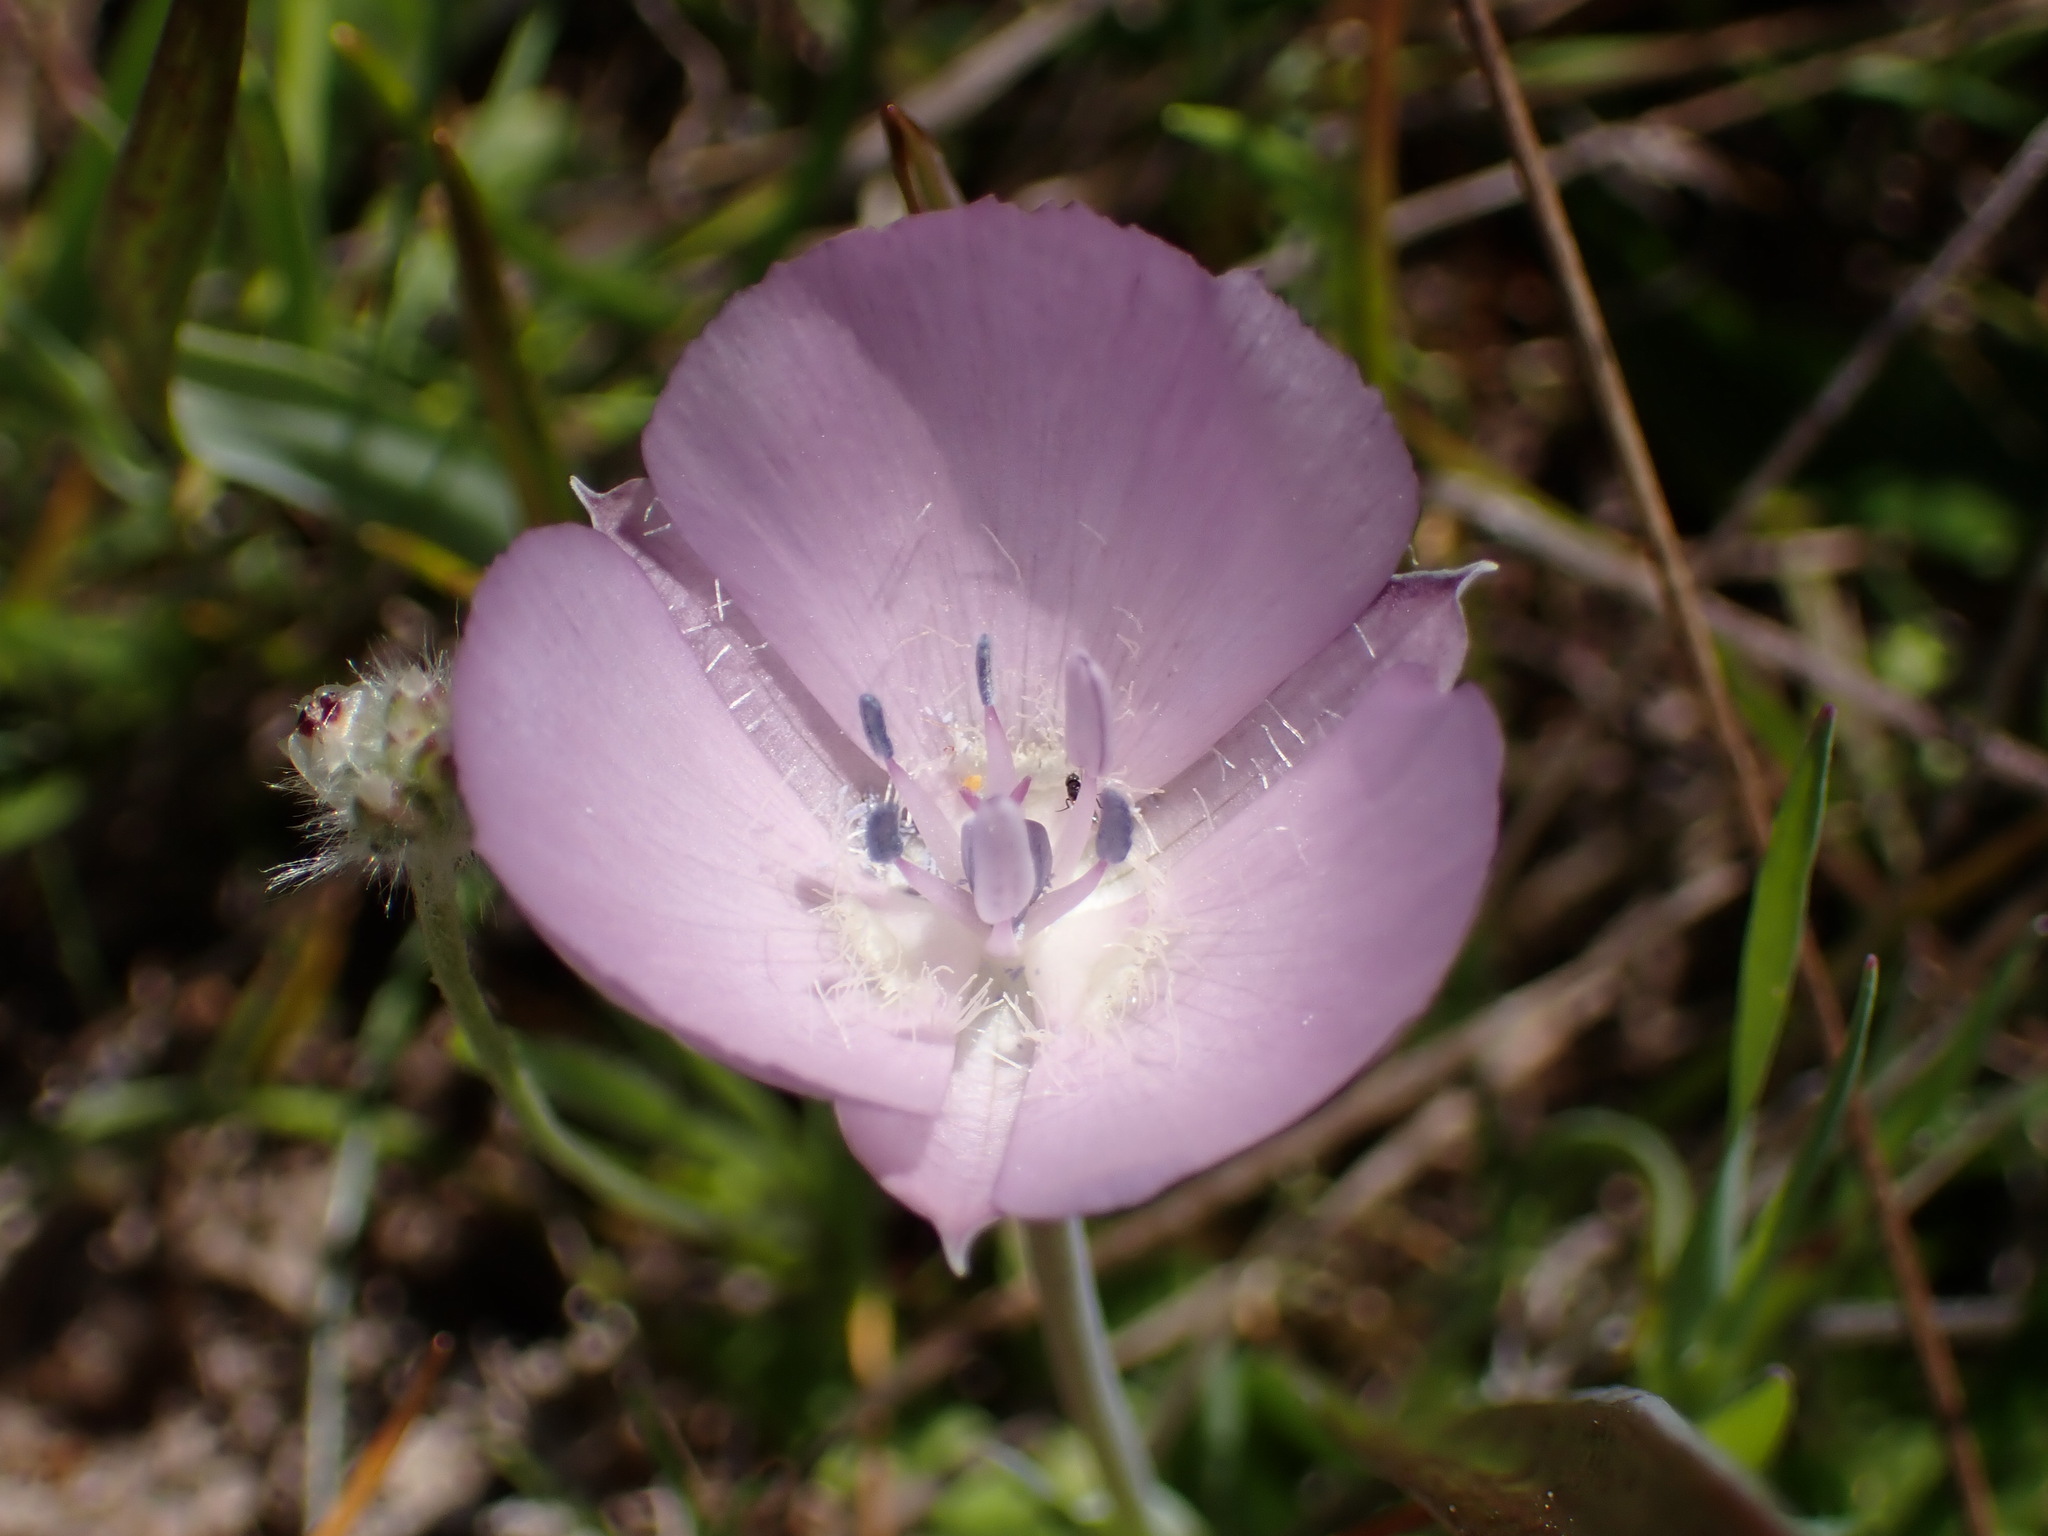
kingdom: Plantae
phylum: Tracheophyta
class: Liliopsida
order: Liliales
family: Liliaceae
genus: Calochortus
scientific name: Calochortus uniflorus
